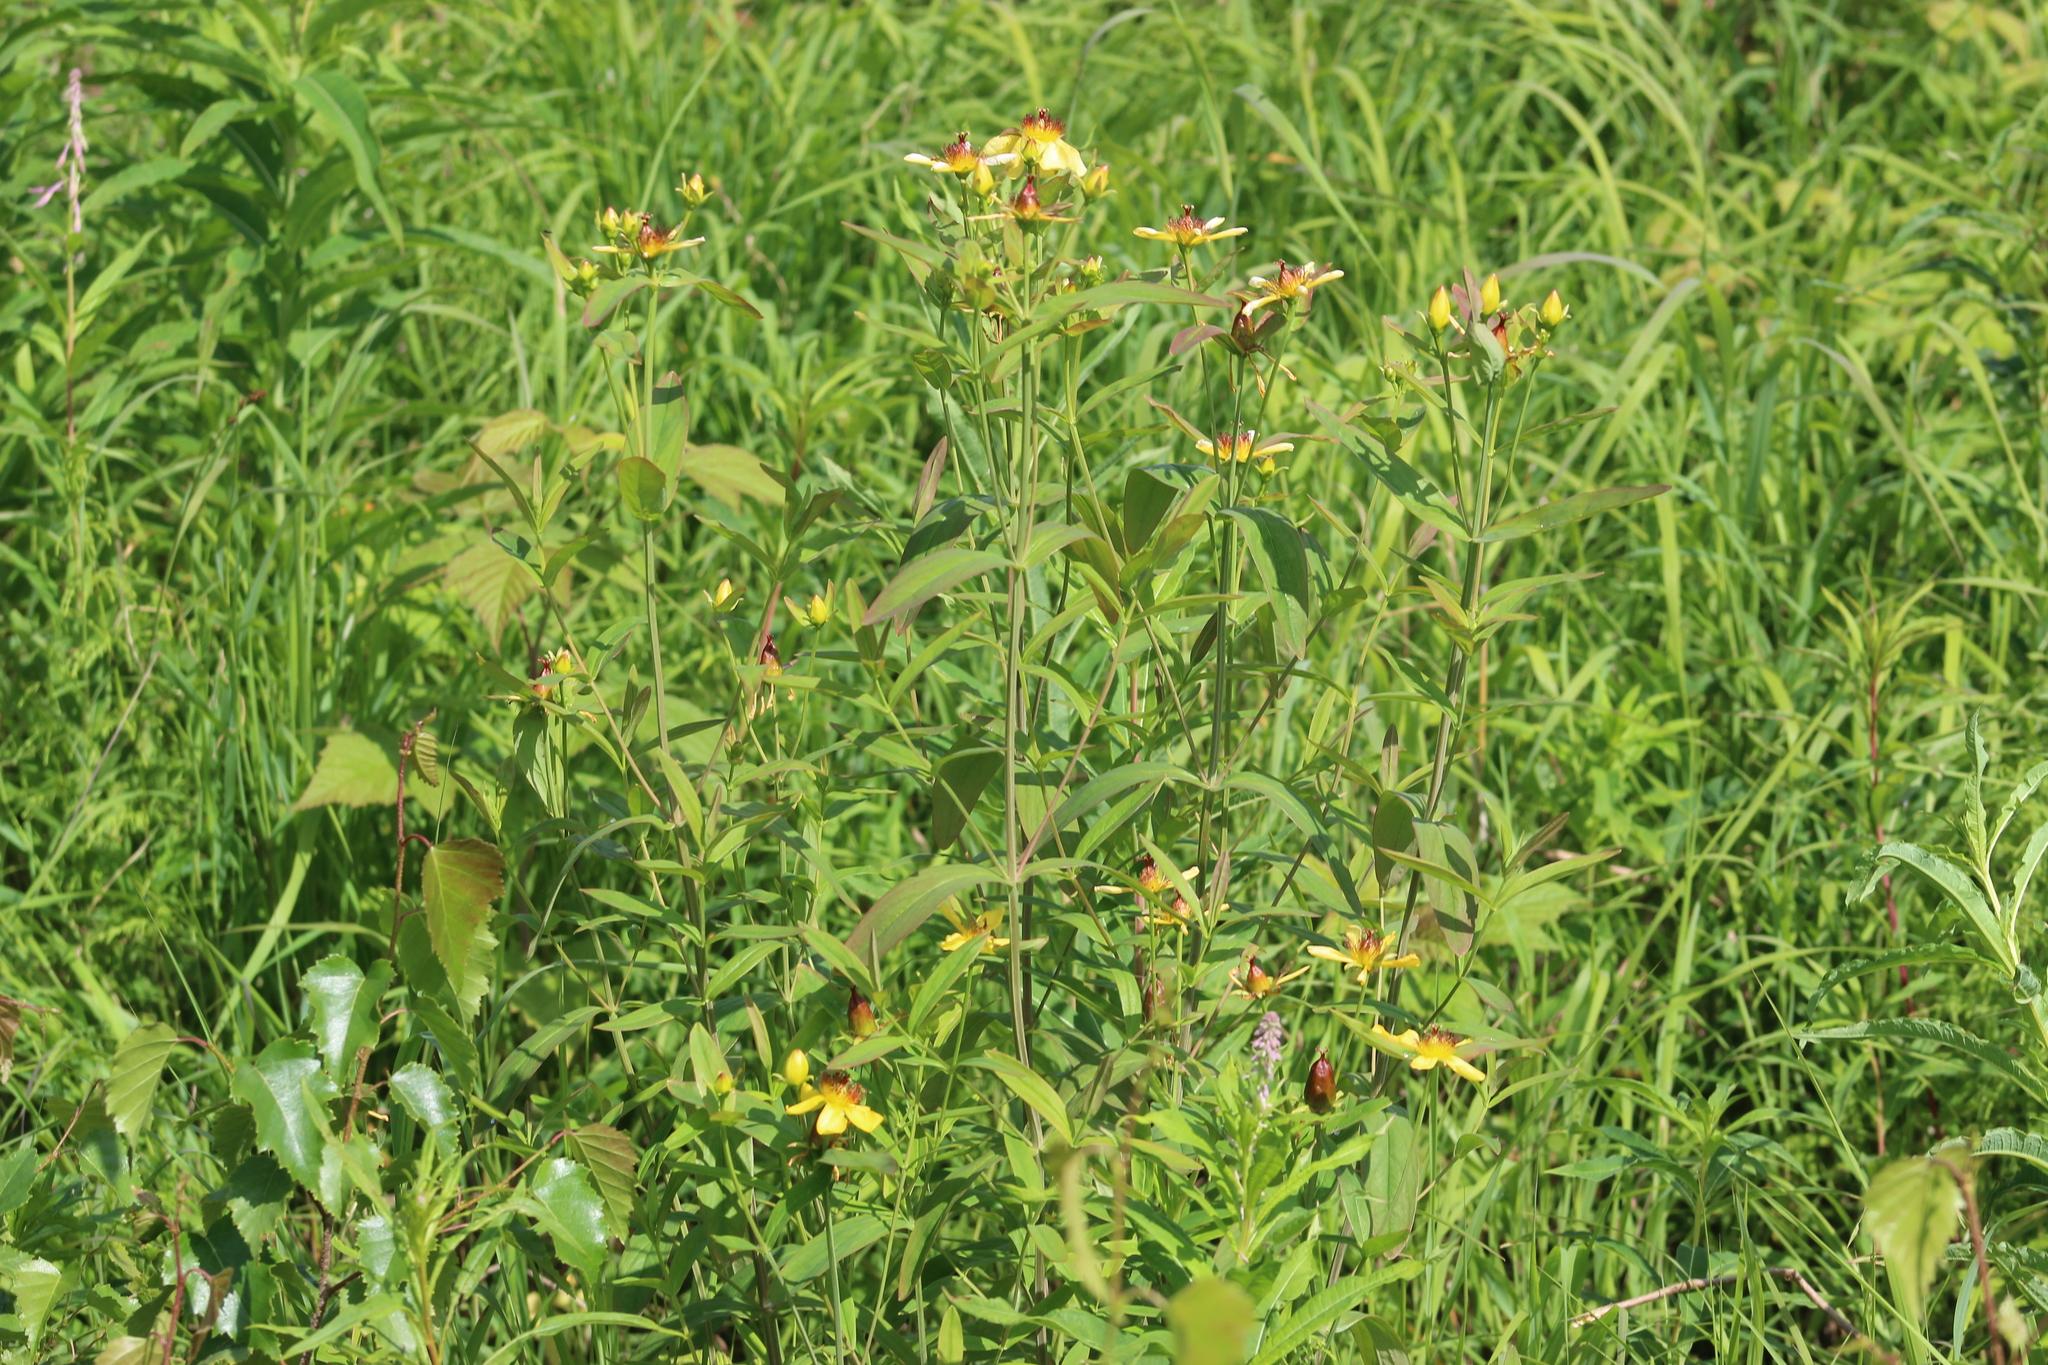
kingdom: Plantae
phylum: Tracheophyta
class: Magnoliopsida
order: Malpighiales
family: Hypericaceae
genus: Hypericum
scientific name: Hypericum ascyron
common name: Giant st. john's-wort
